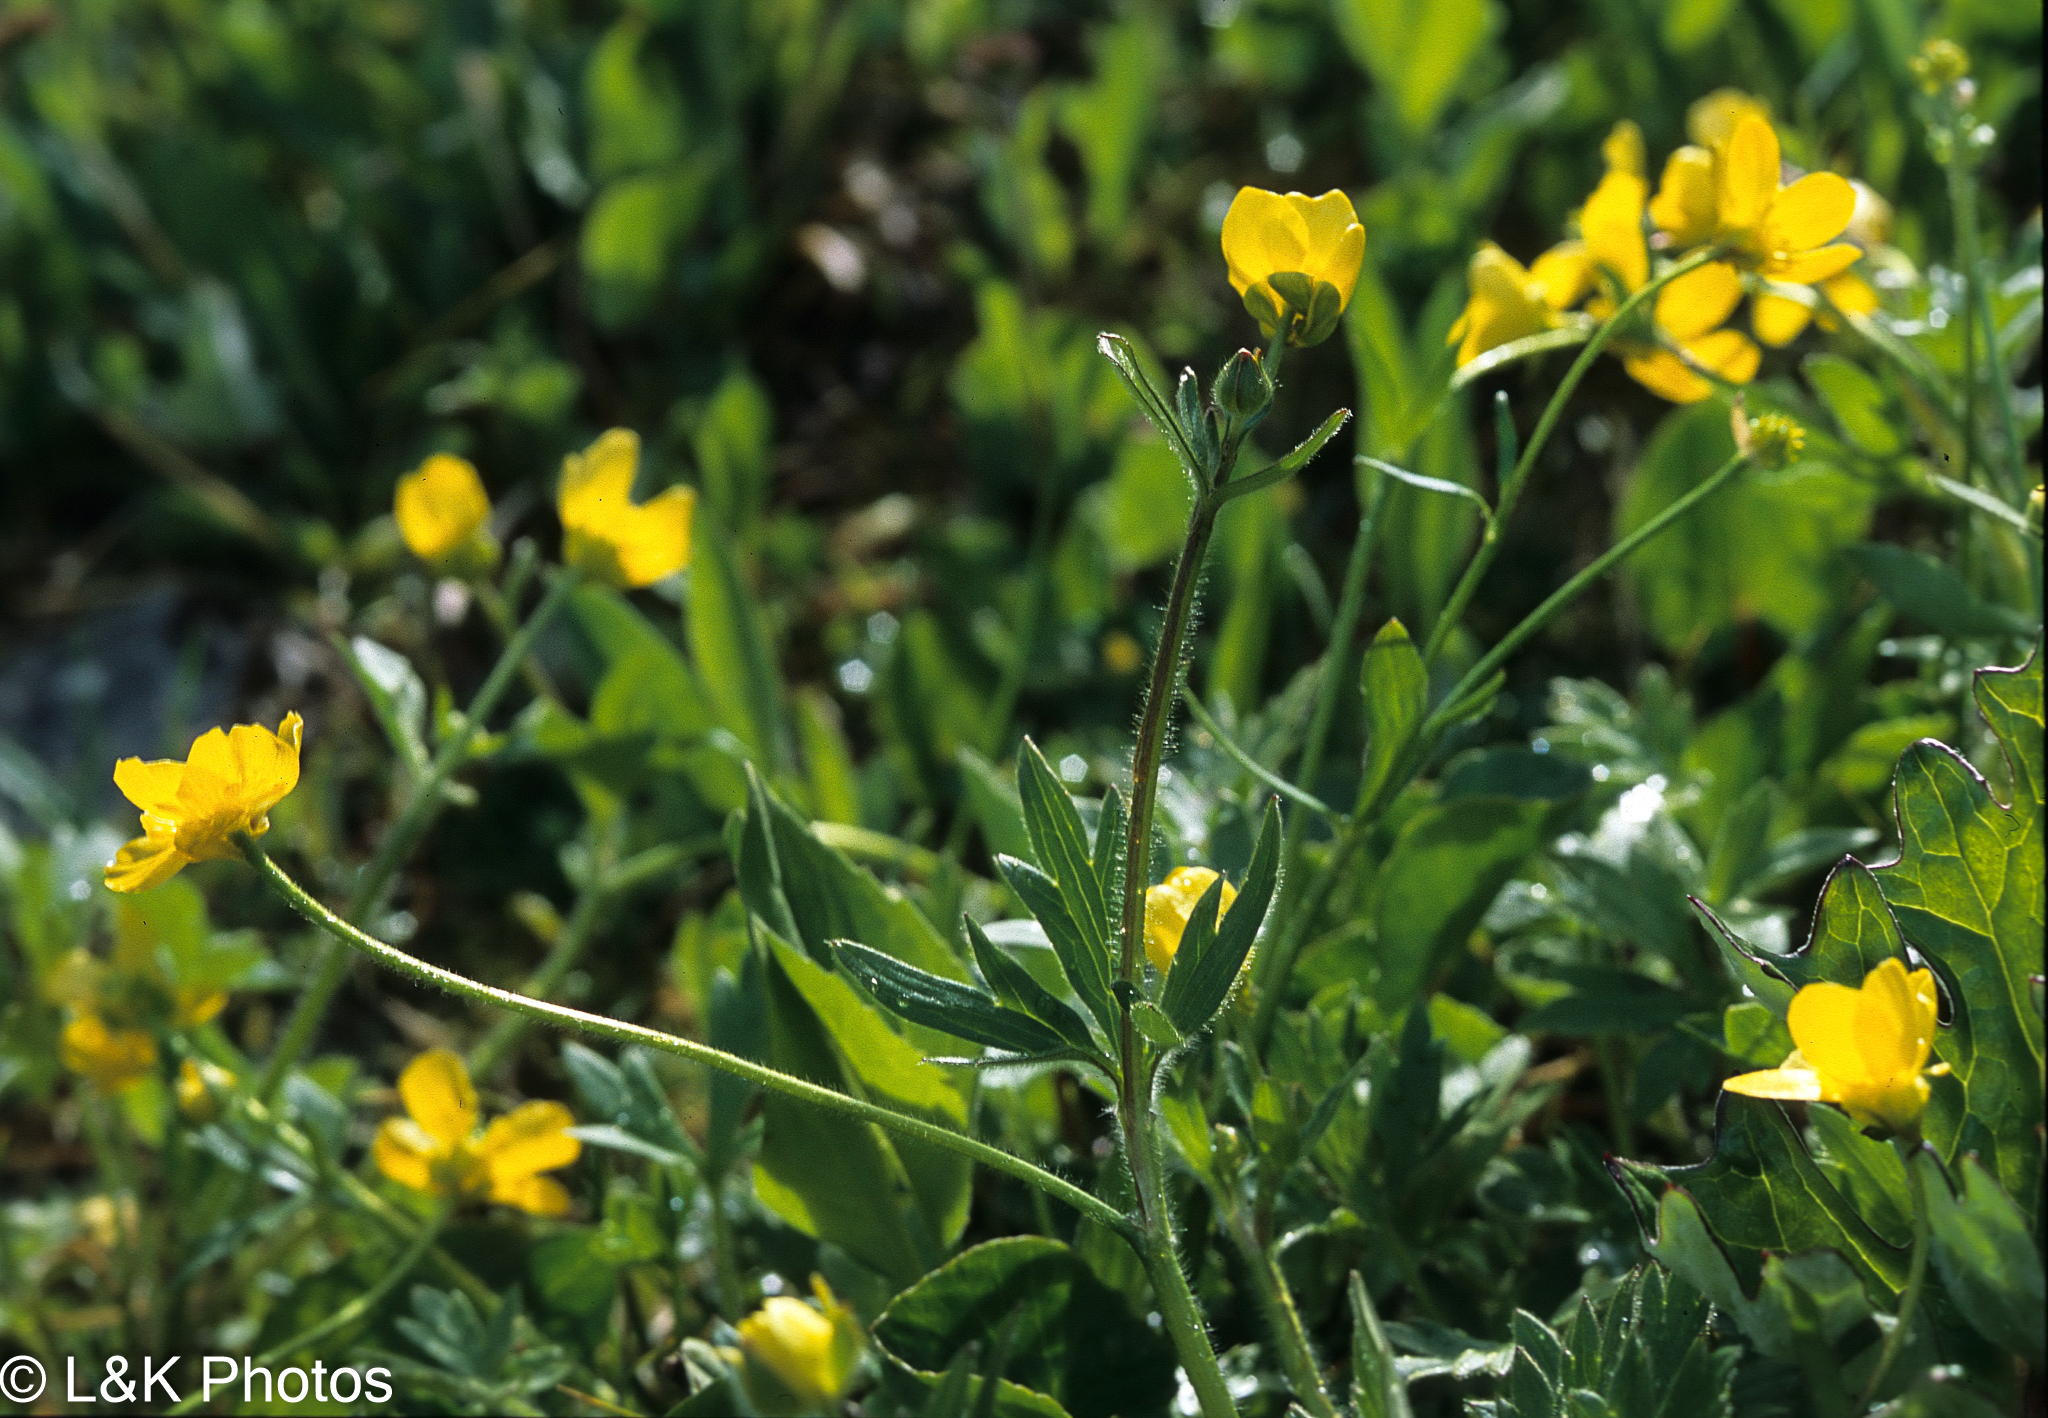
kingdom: Plantae
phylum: Tracheophyta
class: Magnoliopsida
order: Ranunculales
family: Ranunculaceae
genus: Ranunculus
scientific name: Ranunculus eschscholtzii
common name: Eschscholtz's buttercup
